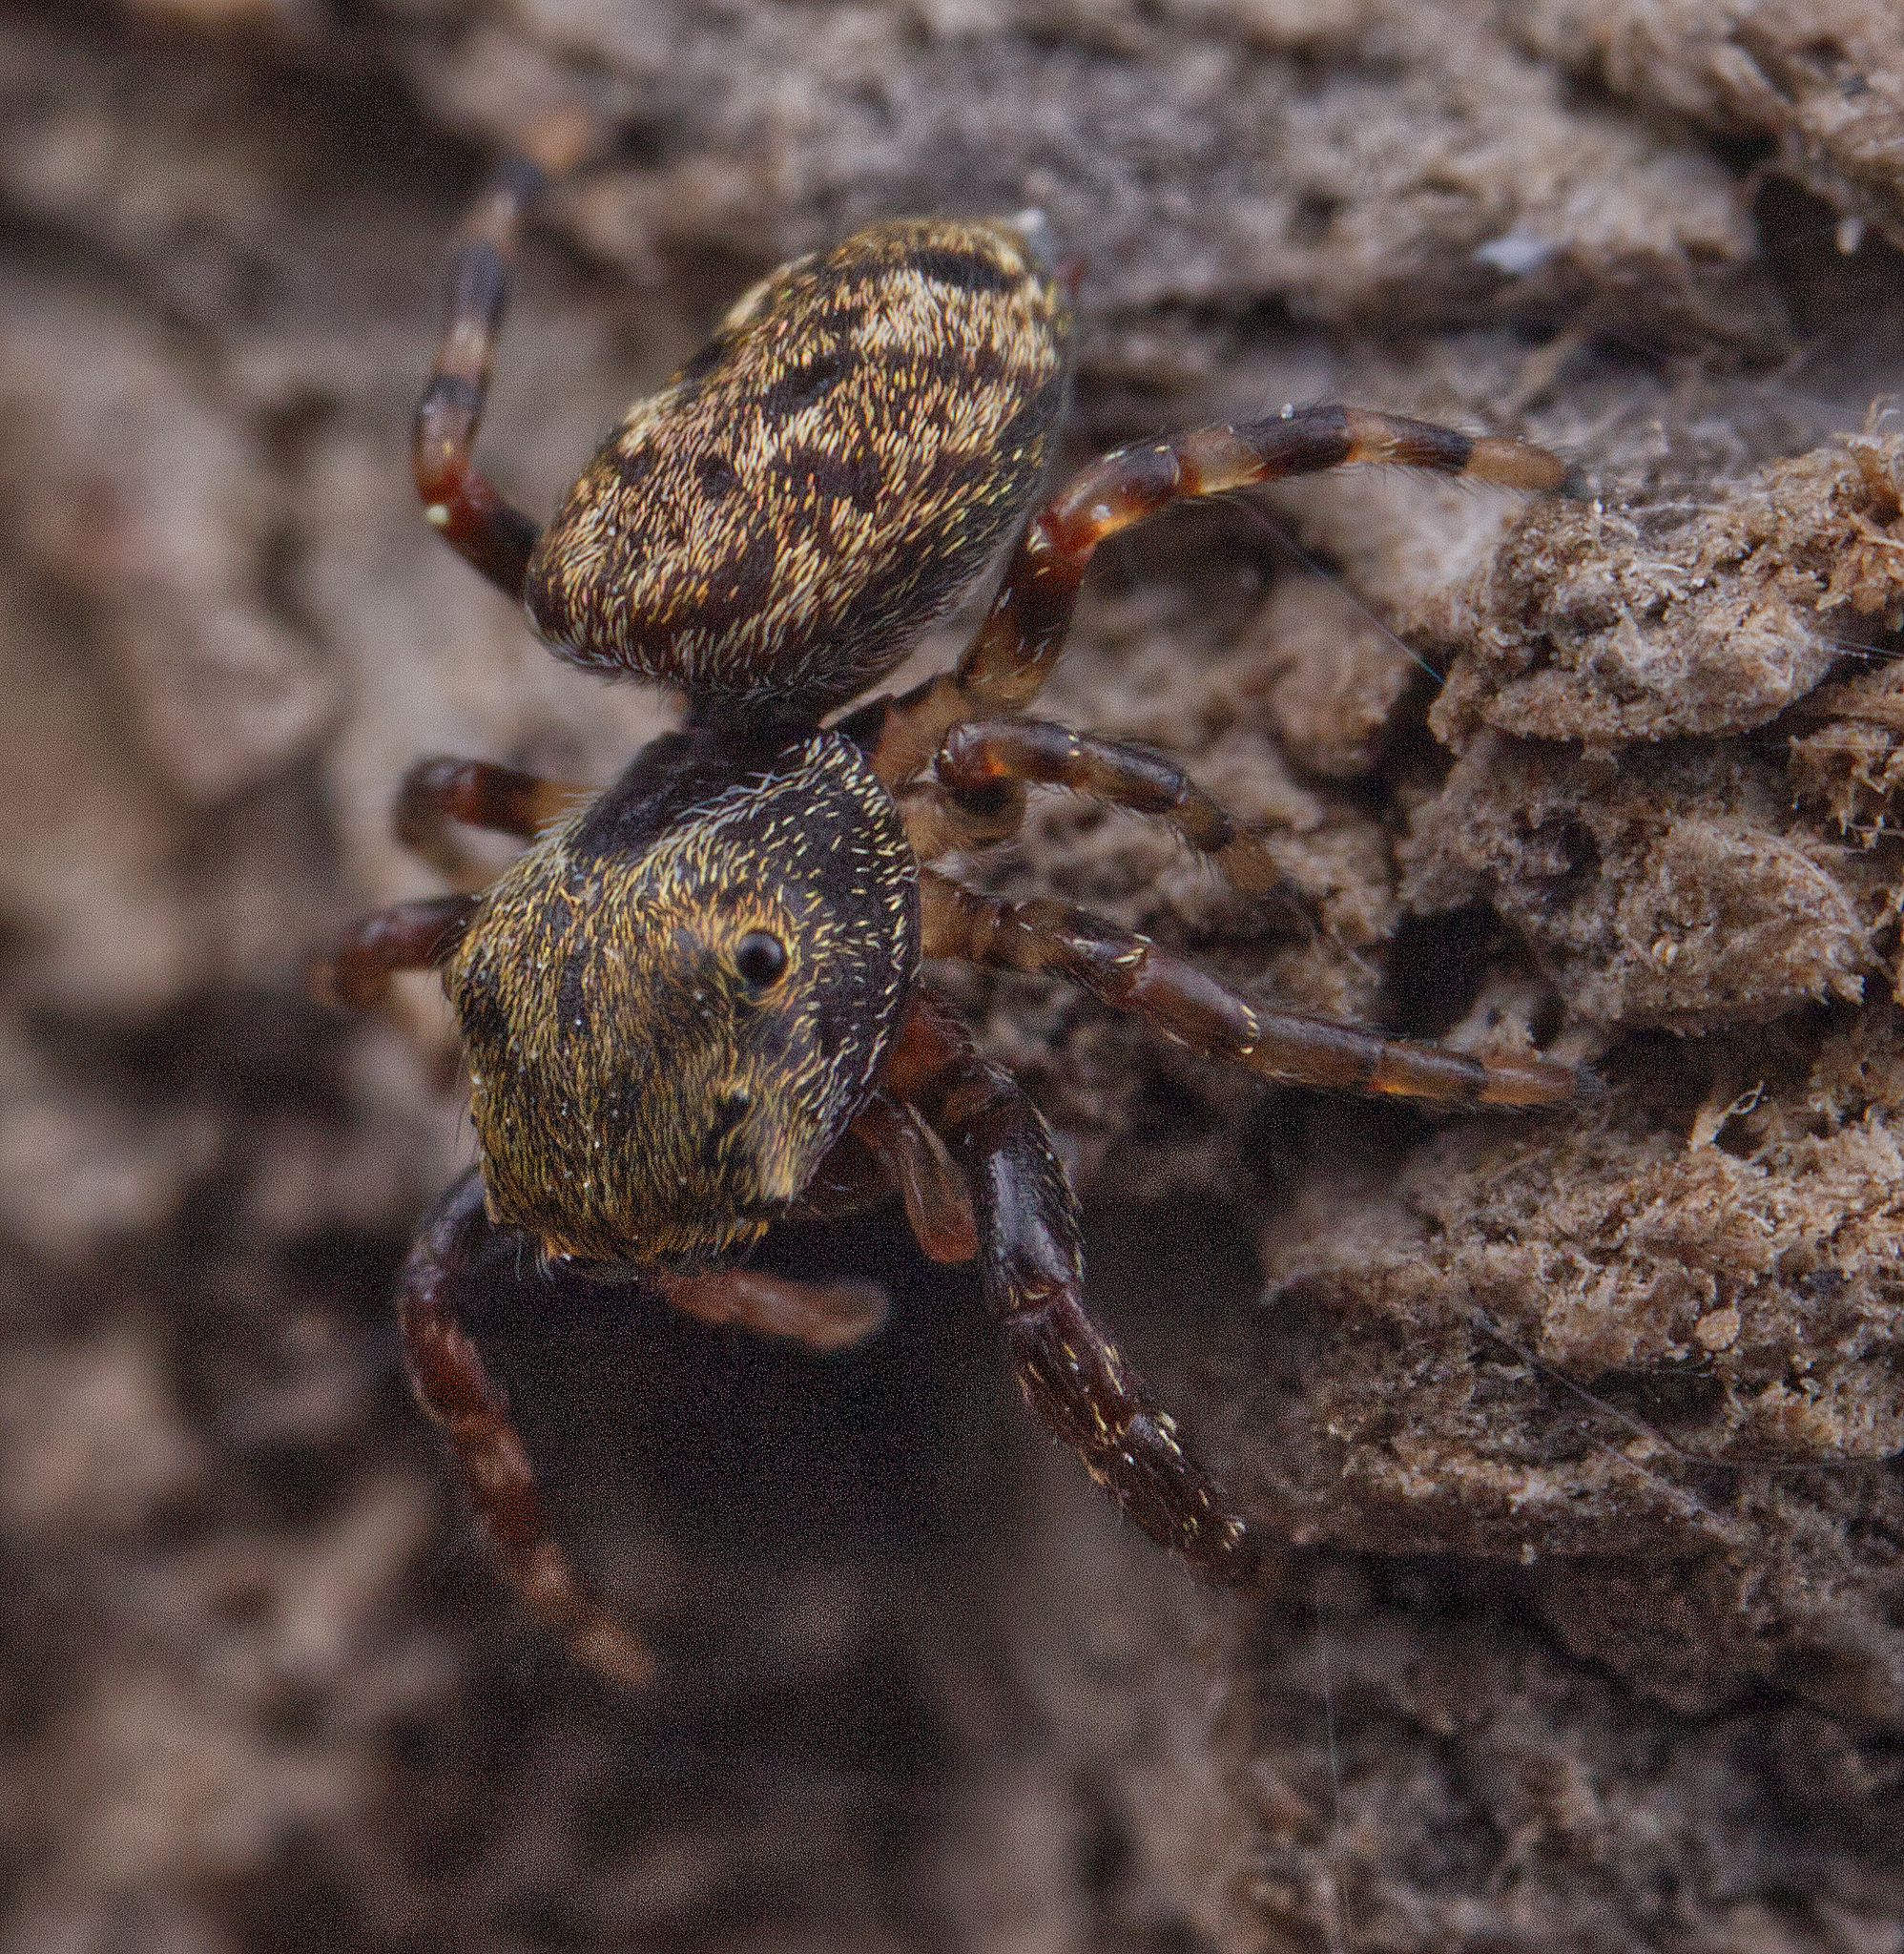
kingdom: Animalia
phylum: Arthropoda
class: Arachnida
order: Araneae
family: Salticidae
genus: Zygoballus
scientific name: Zygoballus nervosus
